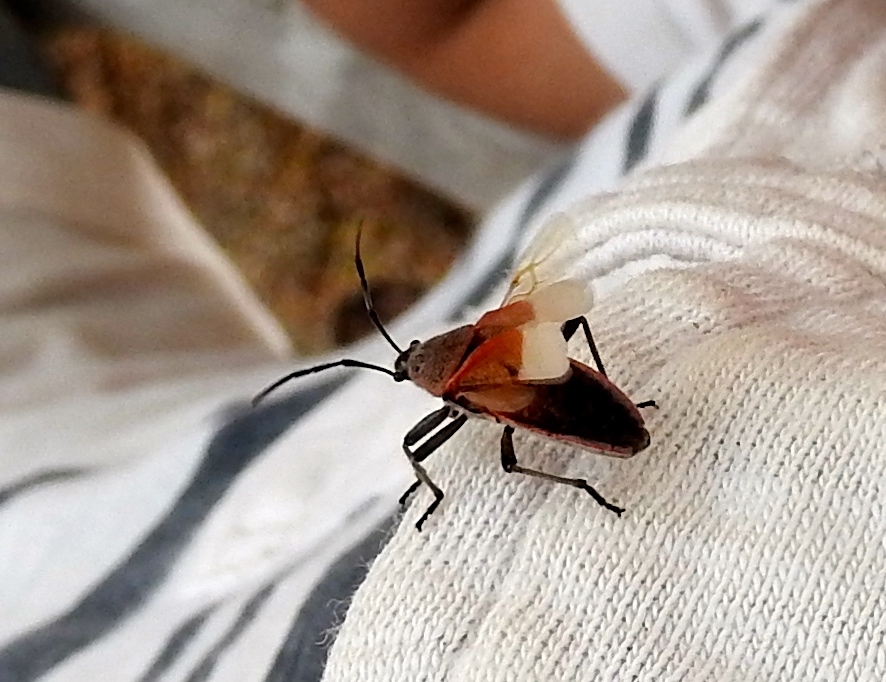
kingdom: Animalia
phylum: Arthropoda
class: Insecta
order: Hemiptera
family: Largidae
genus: Largus
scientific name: Largus
